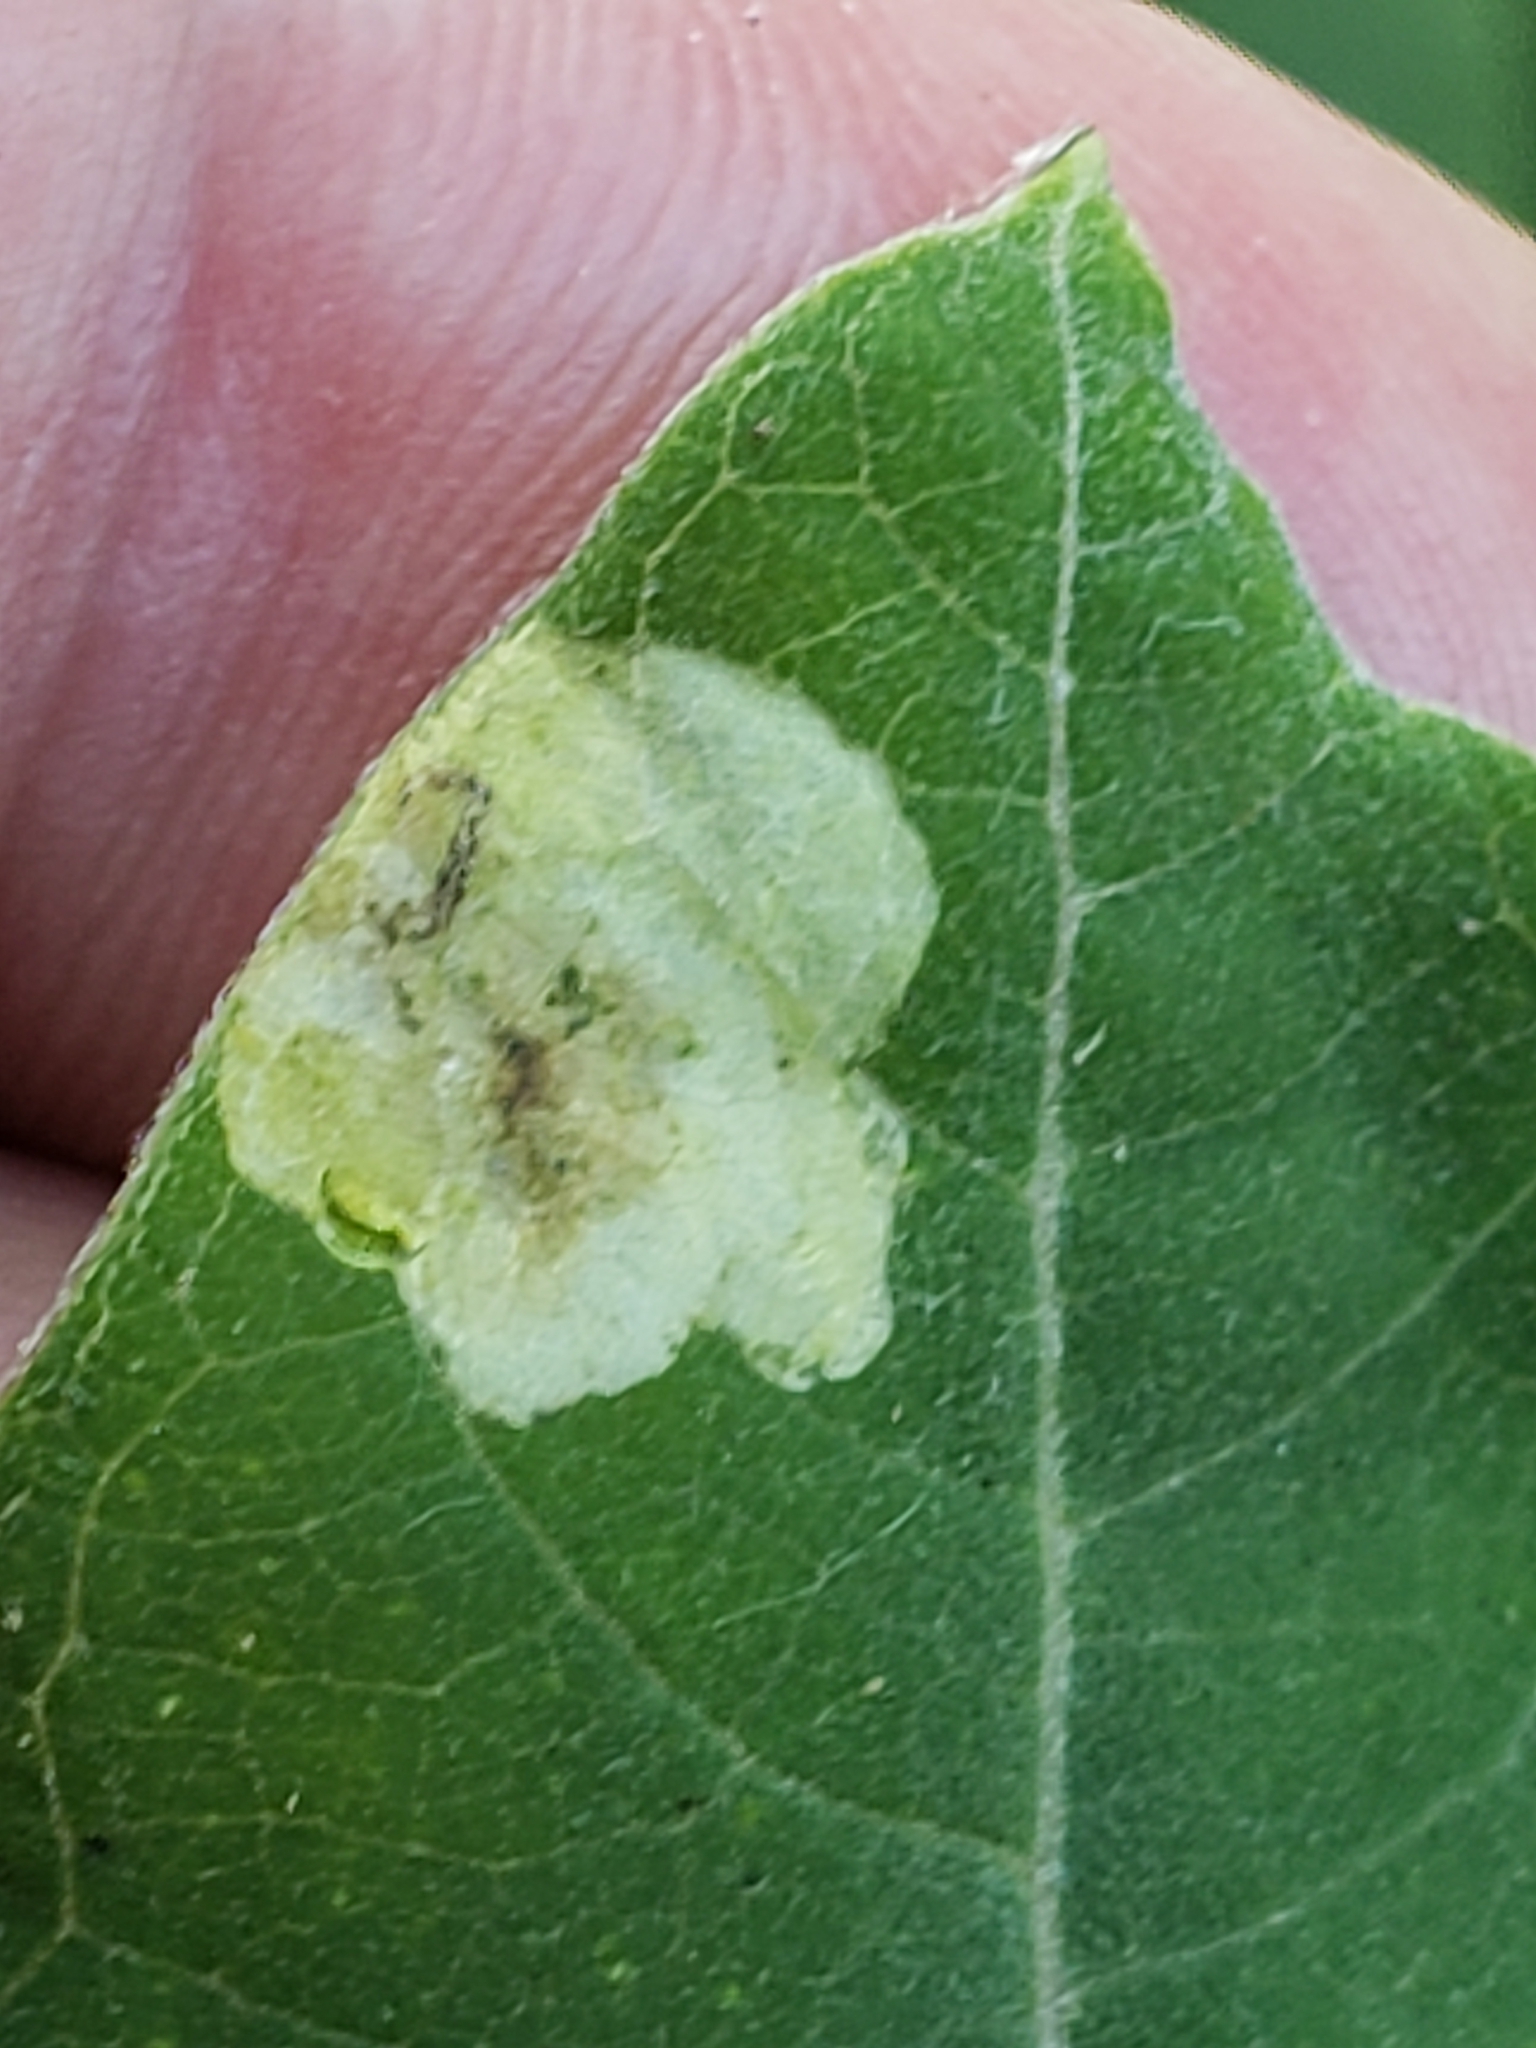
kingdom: Animalia
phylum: Arthropoda
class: Insecta
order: Diptera
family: Agromyzidae
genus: Liriomyza
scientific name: Liriomyza asclepiadis
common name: Milkweed leaf-miner fly
